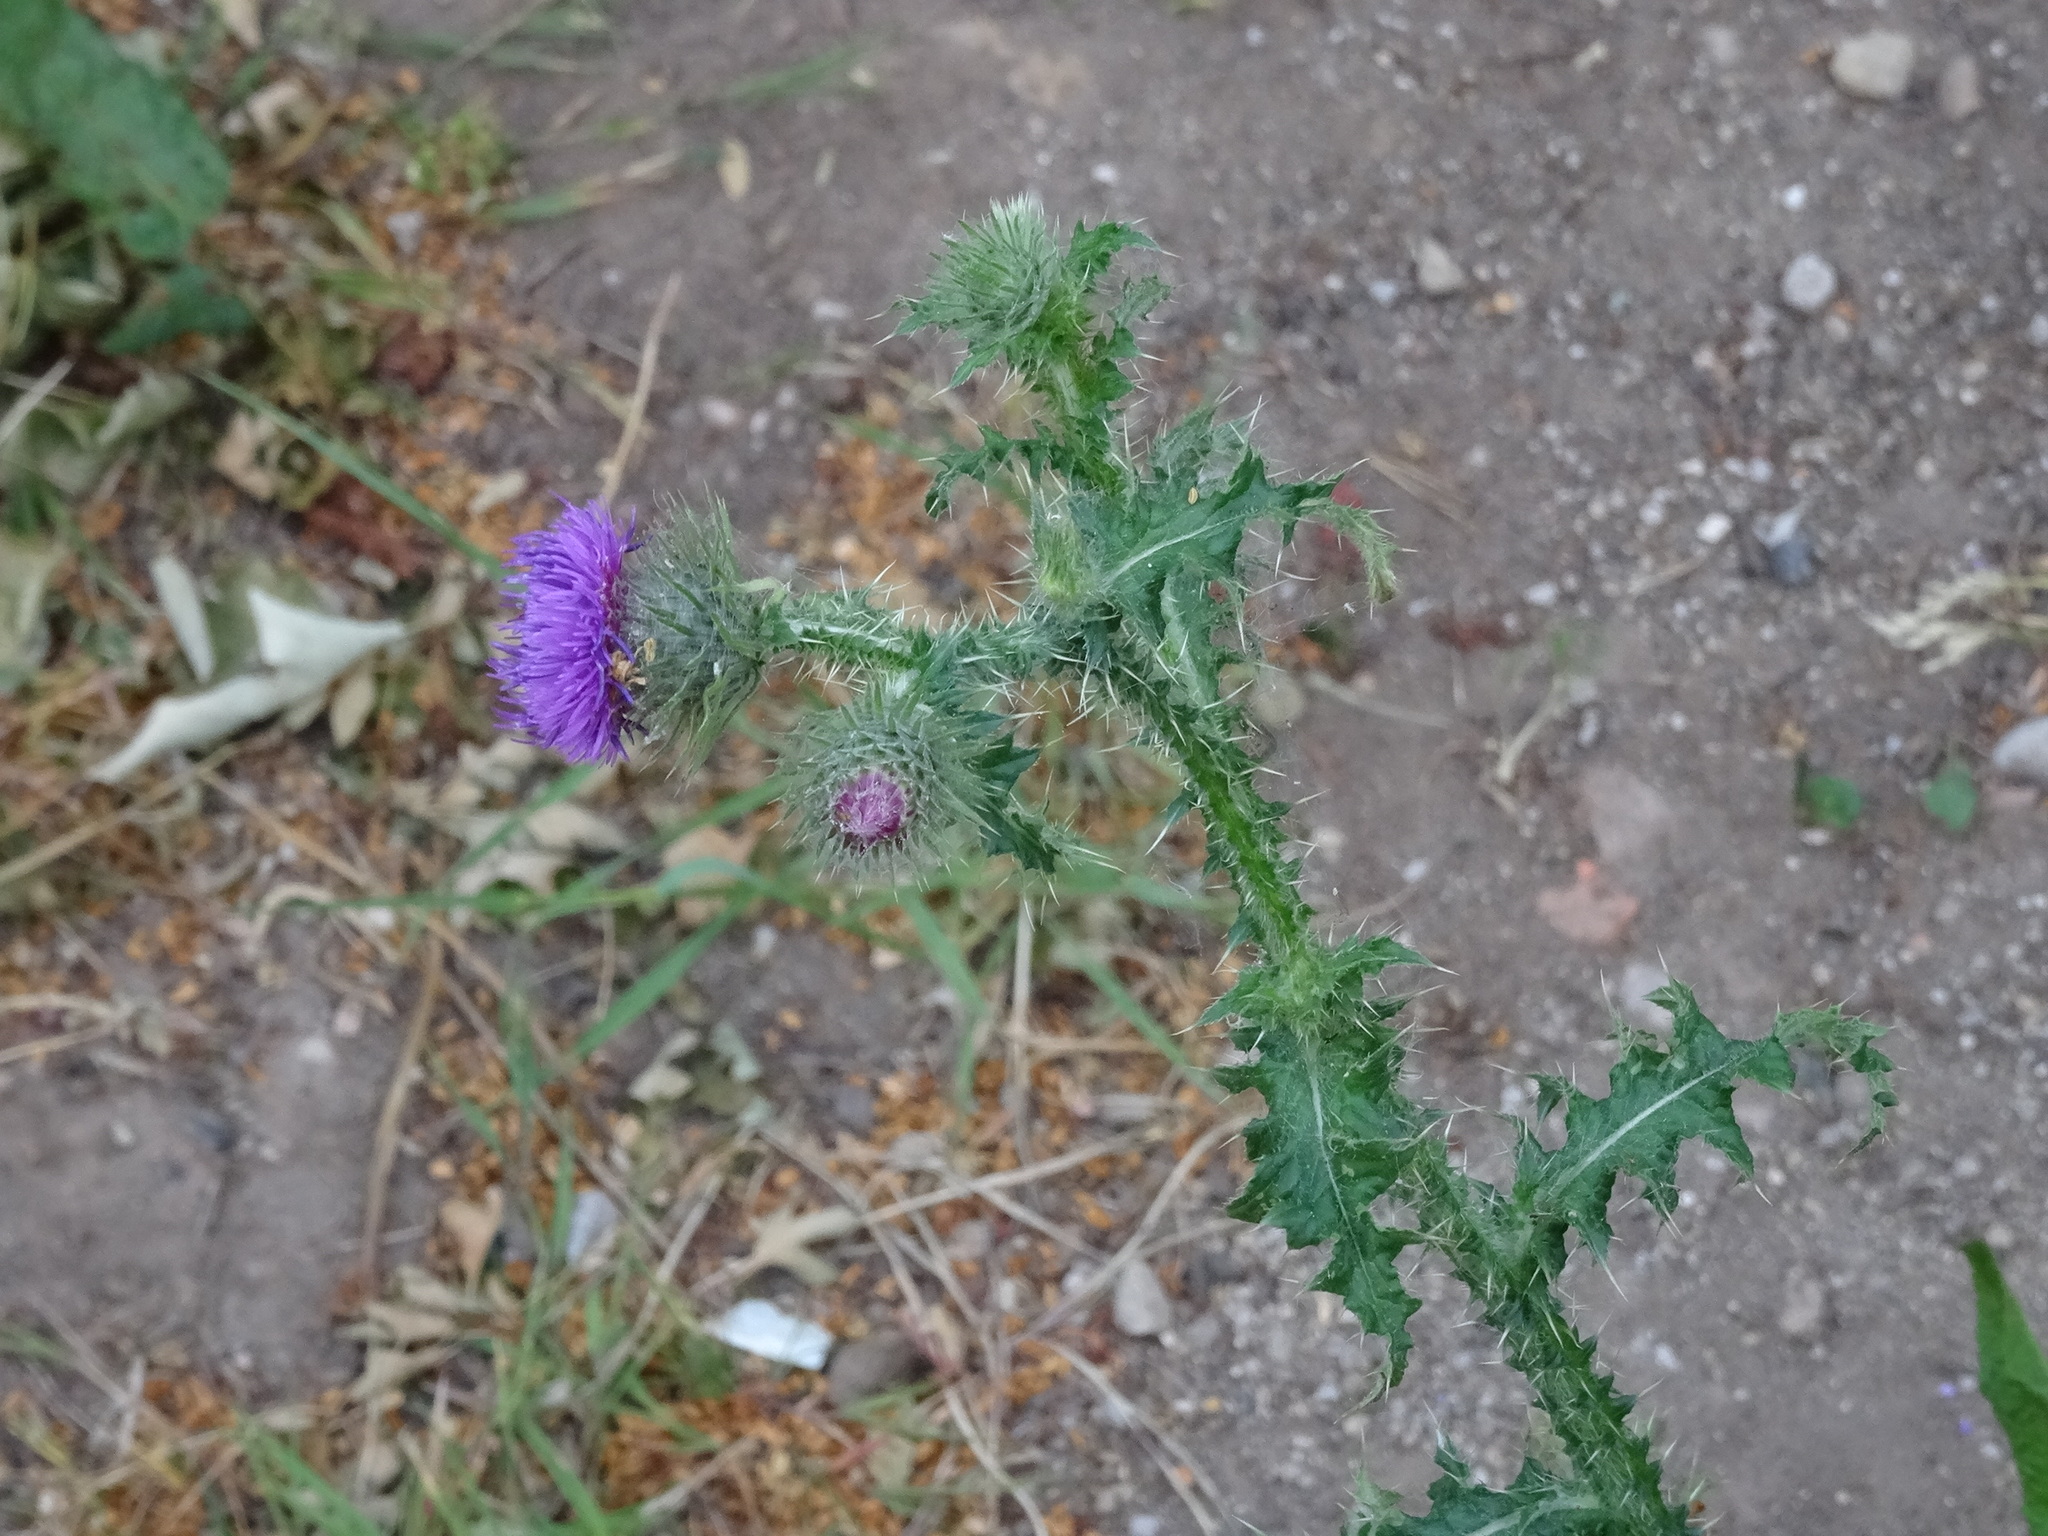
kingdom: Plantae
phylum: Tracheophyta
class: Magnoliopsida
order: Asterales
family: Asteraceae
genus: Carduus
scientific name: Carduus crispus
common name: Welted thistle
